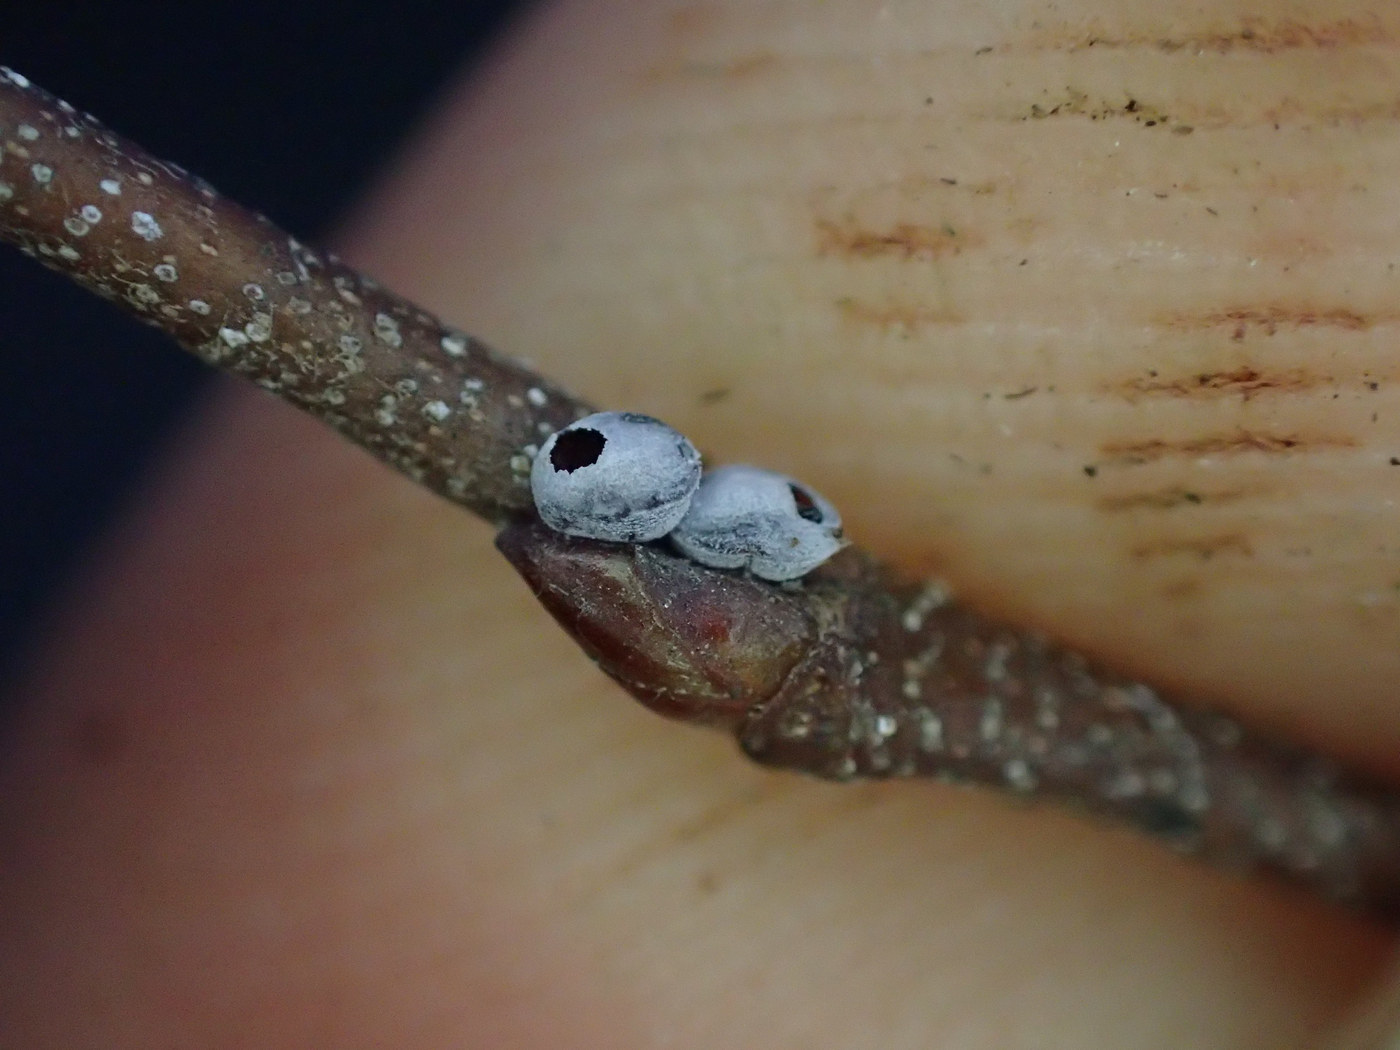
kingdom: Animalia
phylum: Arthropoda
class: Insecta
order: Hemiptera
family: Aphididae
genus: Hormaphis
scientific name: Hormaphis cornu
